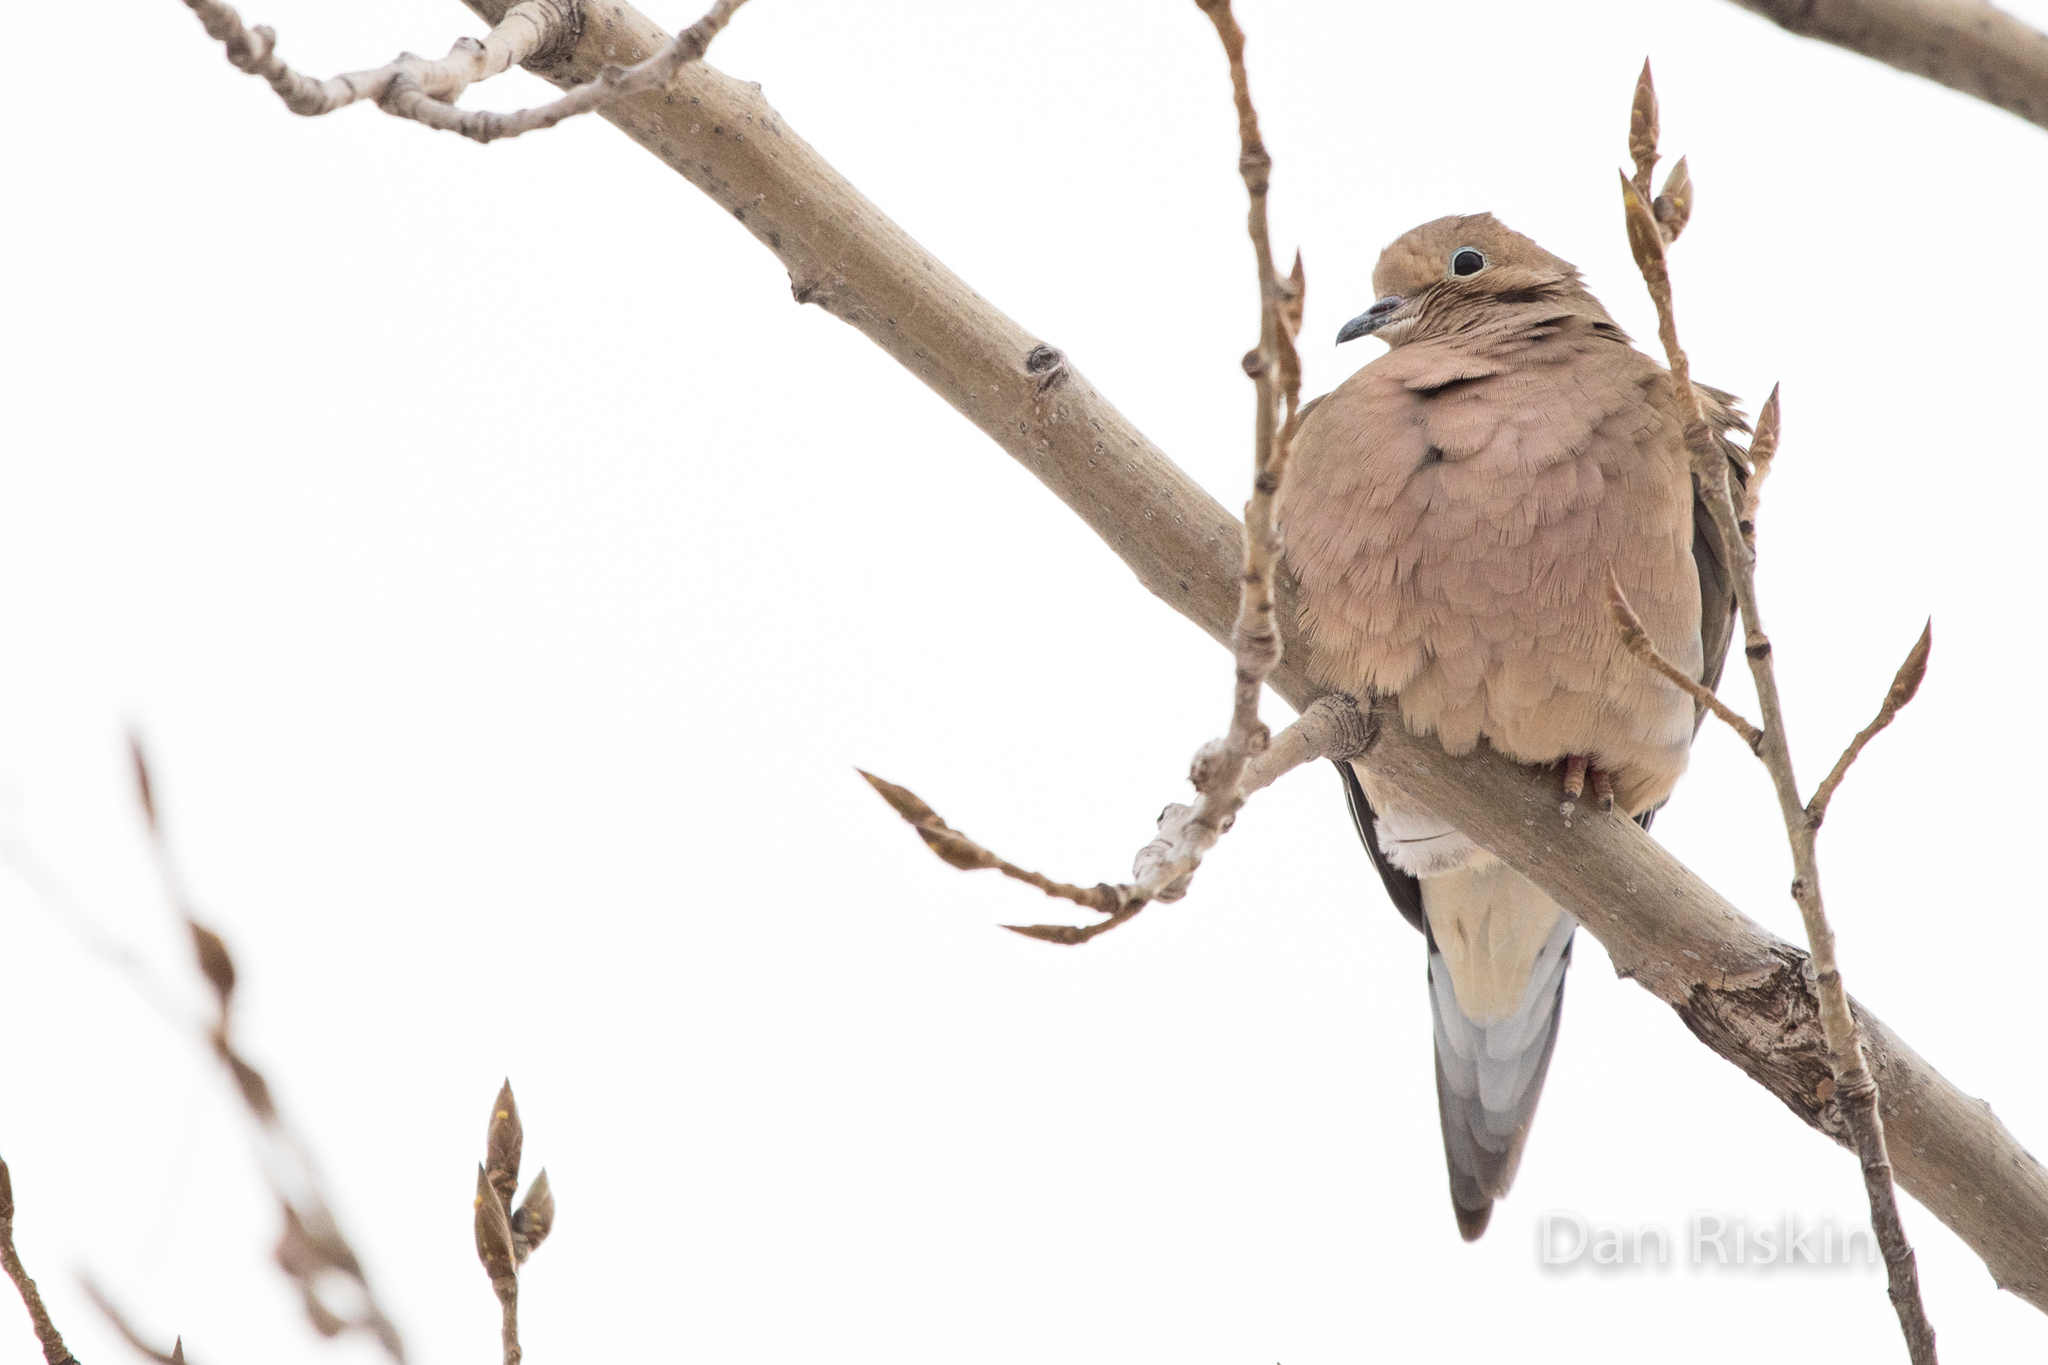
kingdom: Animalia
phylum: Chordata
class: Aves
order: Columbiformes
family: Columbidae
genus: Zenaida
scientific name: Zenaida macroura
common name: Mourning dove
